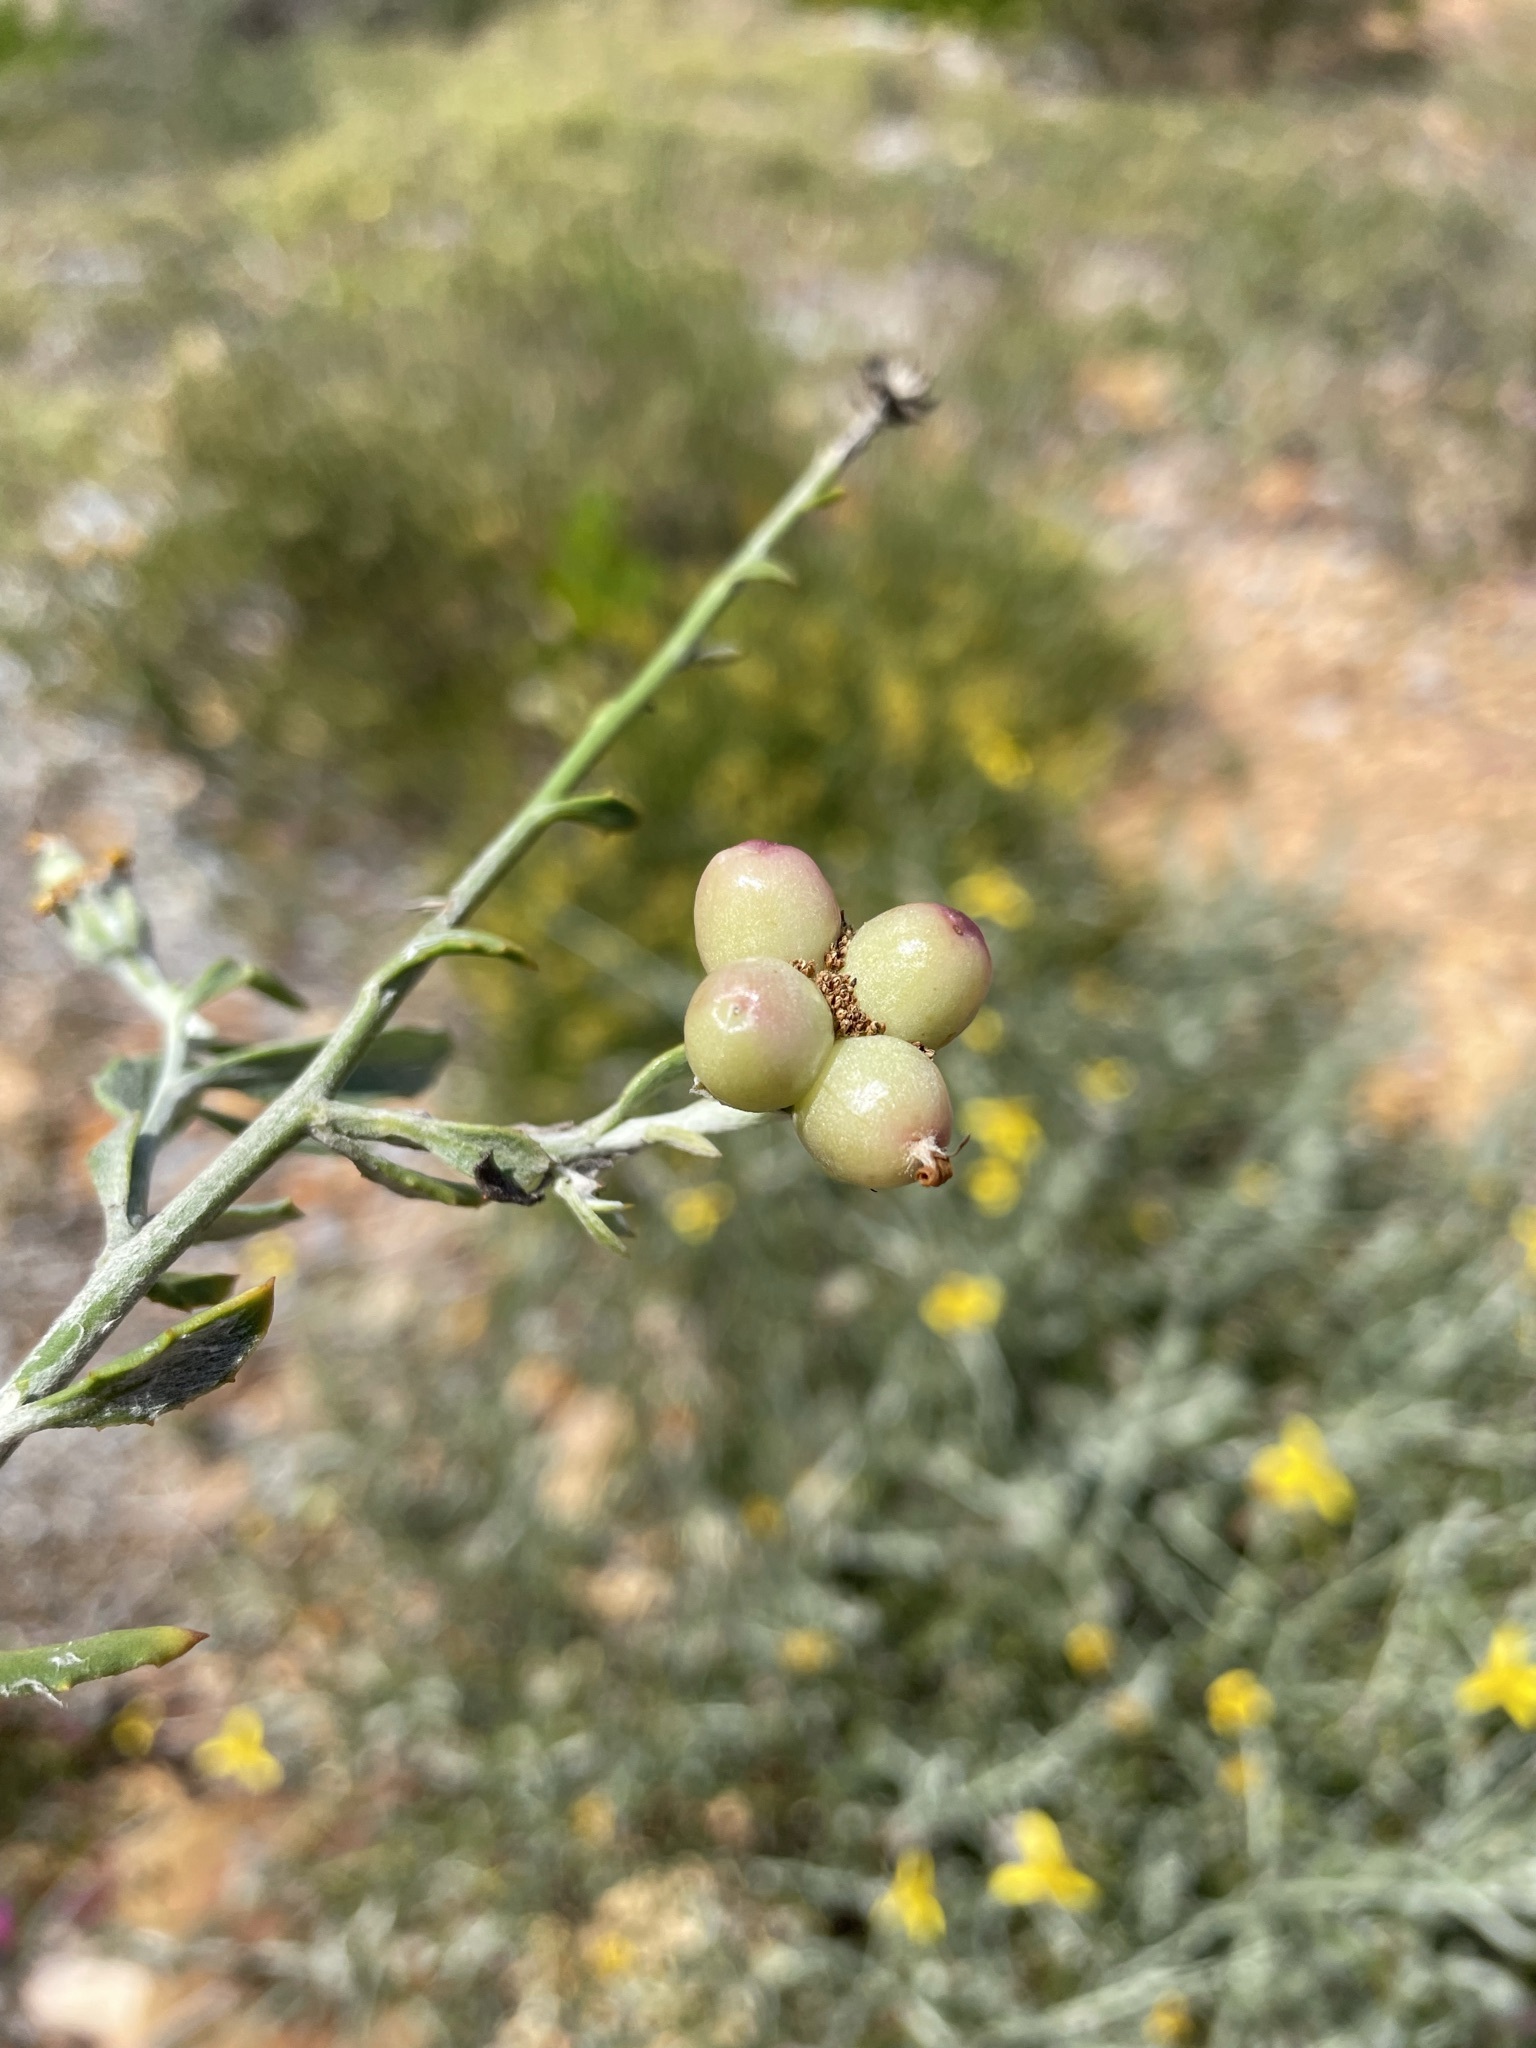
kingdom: Plantae
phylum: Tracheophyta
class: Magnoliopsida
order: Asterales
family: Asteraceae
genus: Osteospermum
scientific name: Osteospermum incanum
